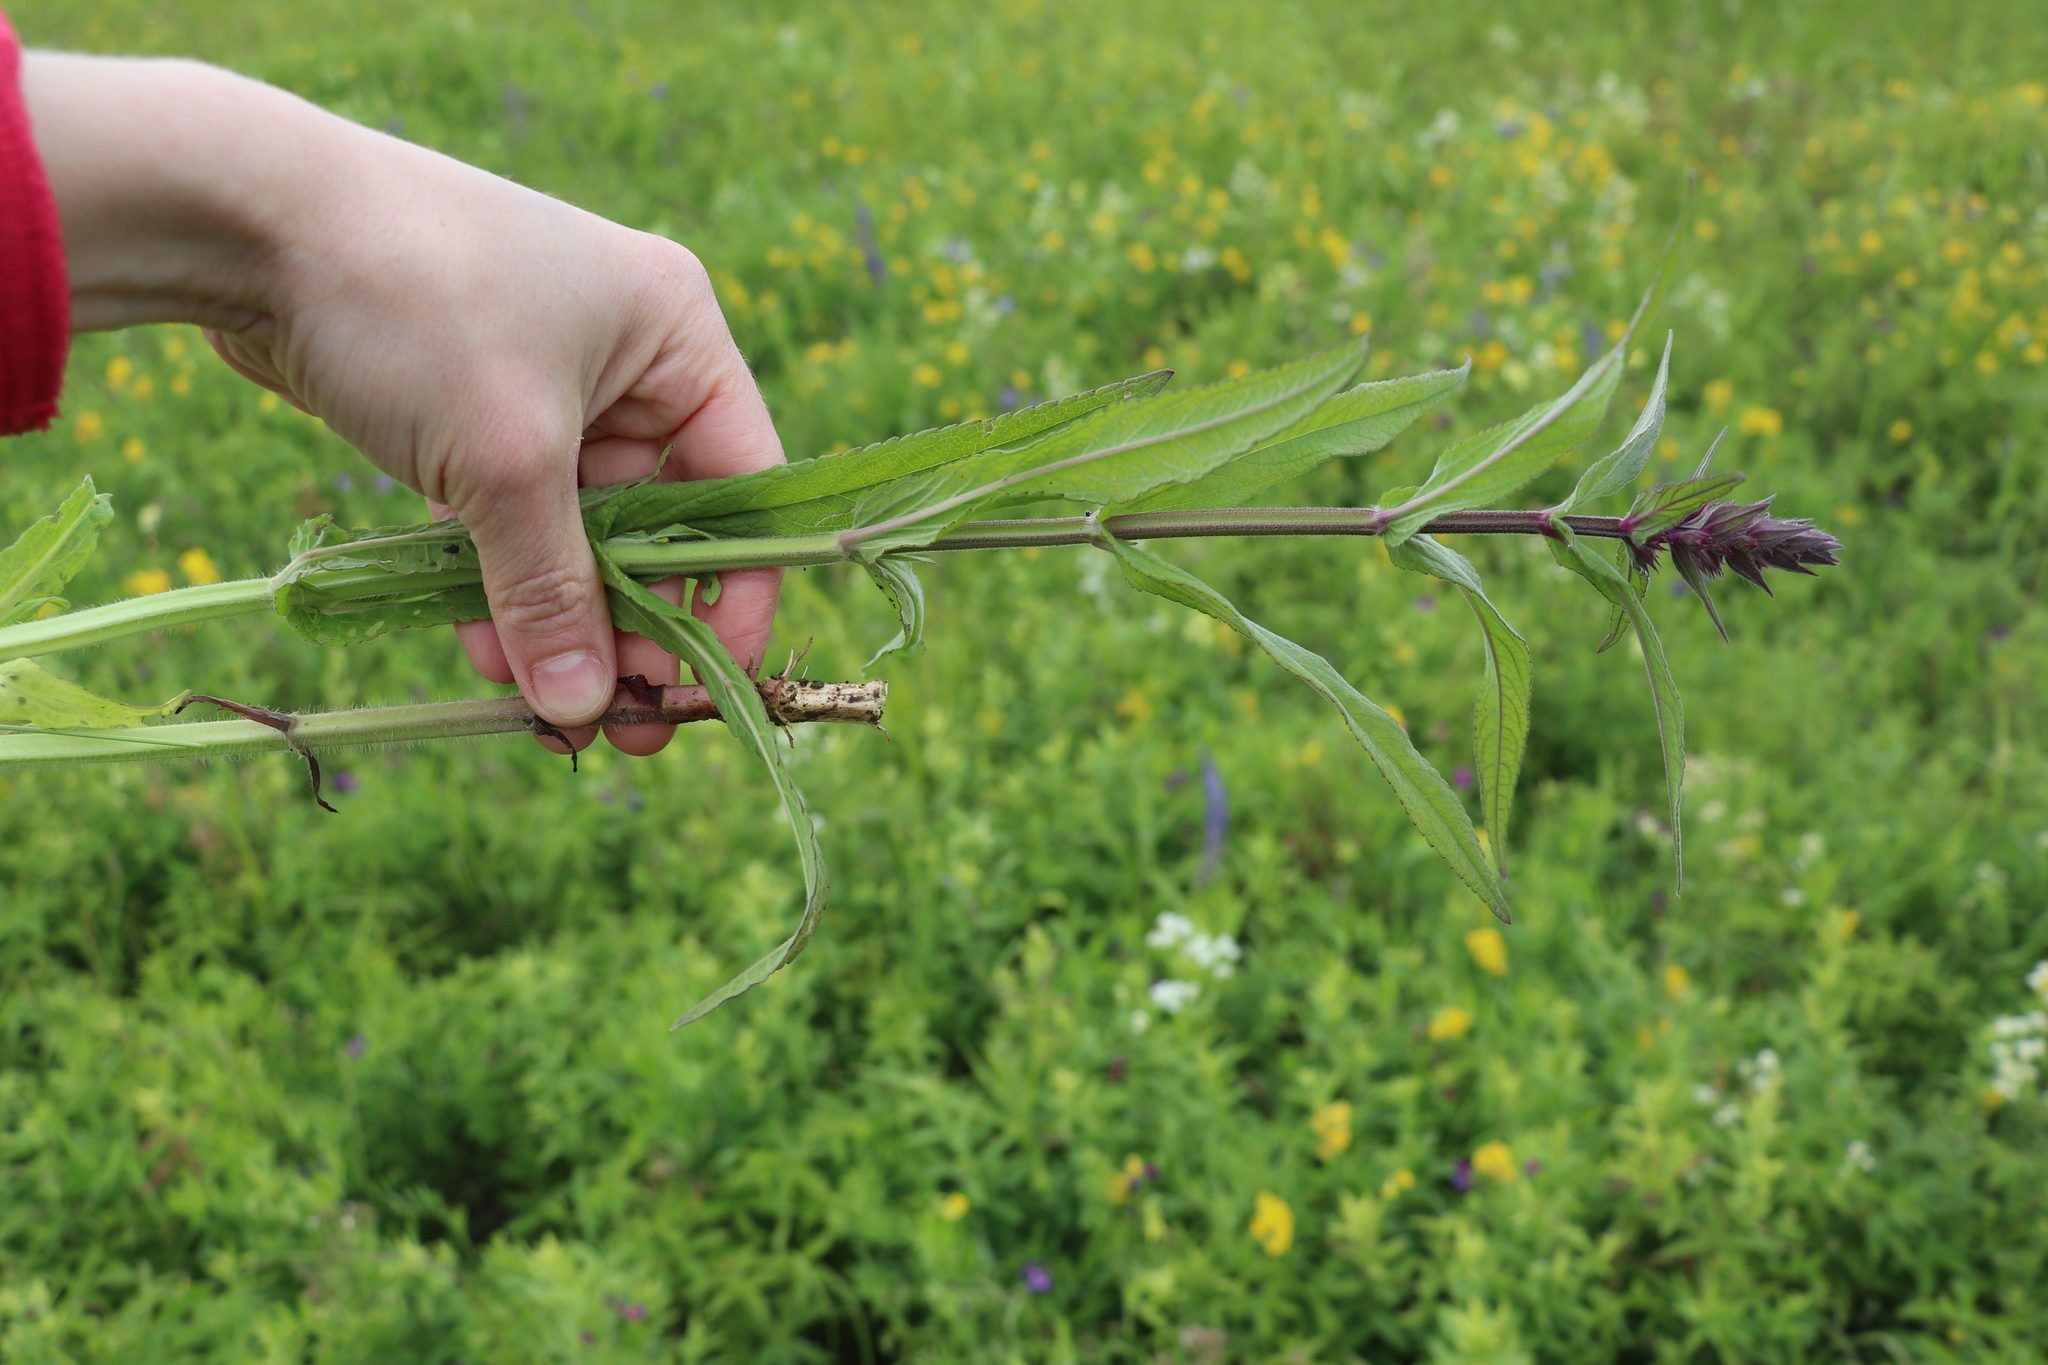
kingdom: Plantae
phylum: Tracheophyta
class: Magnoliopsida
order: Lamiales
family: Lamiaceae
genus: Stachys
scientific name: Stachys palustris
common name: Marsh woundwort
